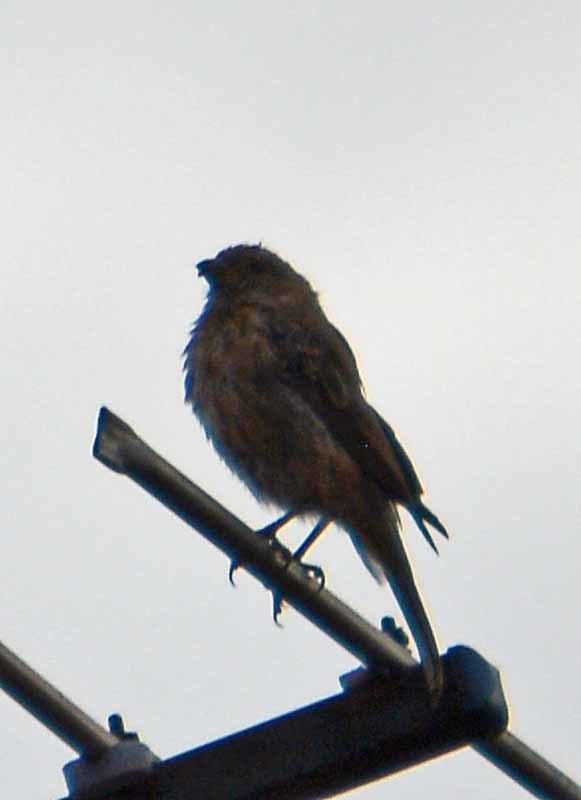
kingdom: Animalia
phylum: Chordata
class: Aves
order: Passeriformes
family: Fringillidae
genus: Haemorhous
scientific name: Haemorhous mexicanus
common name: House finch
